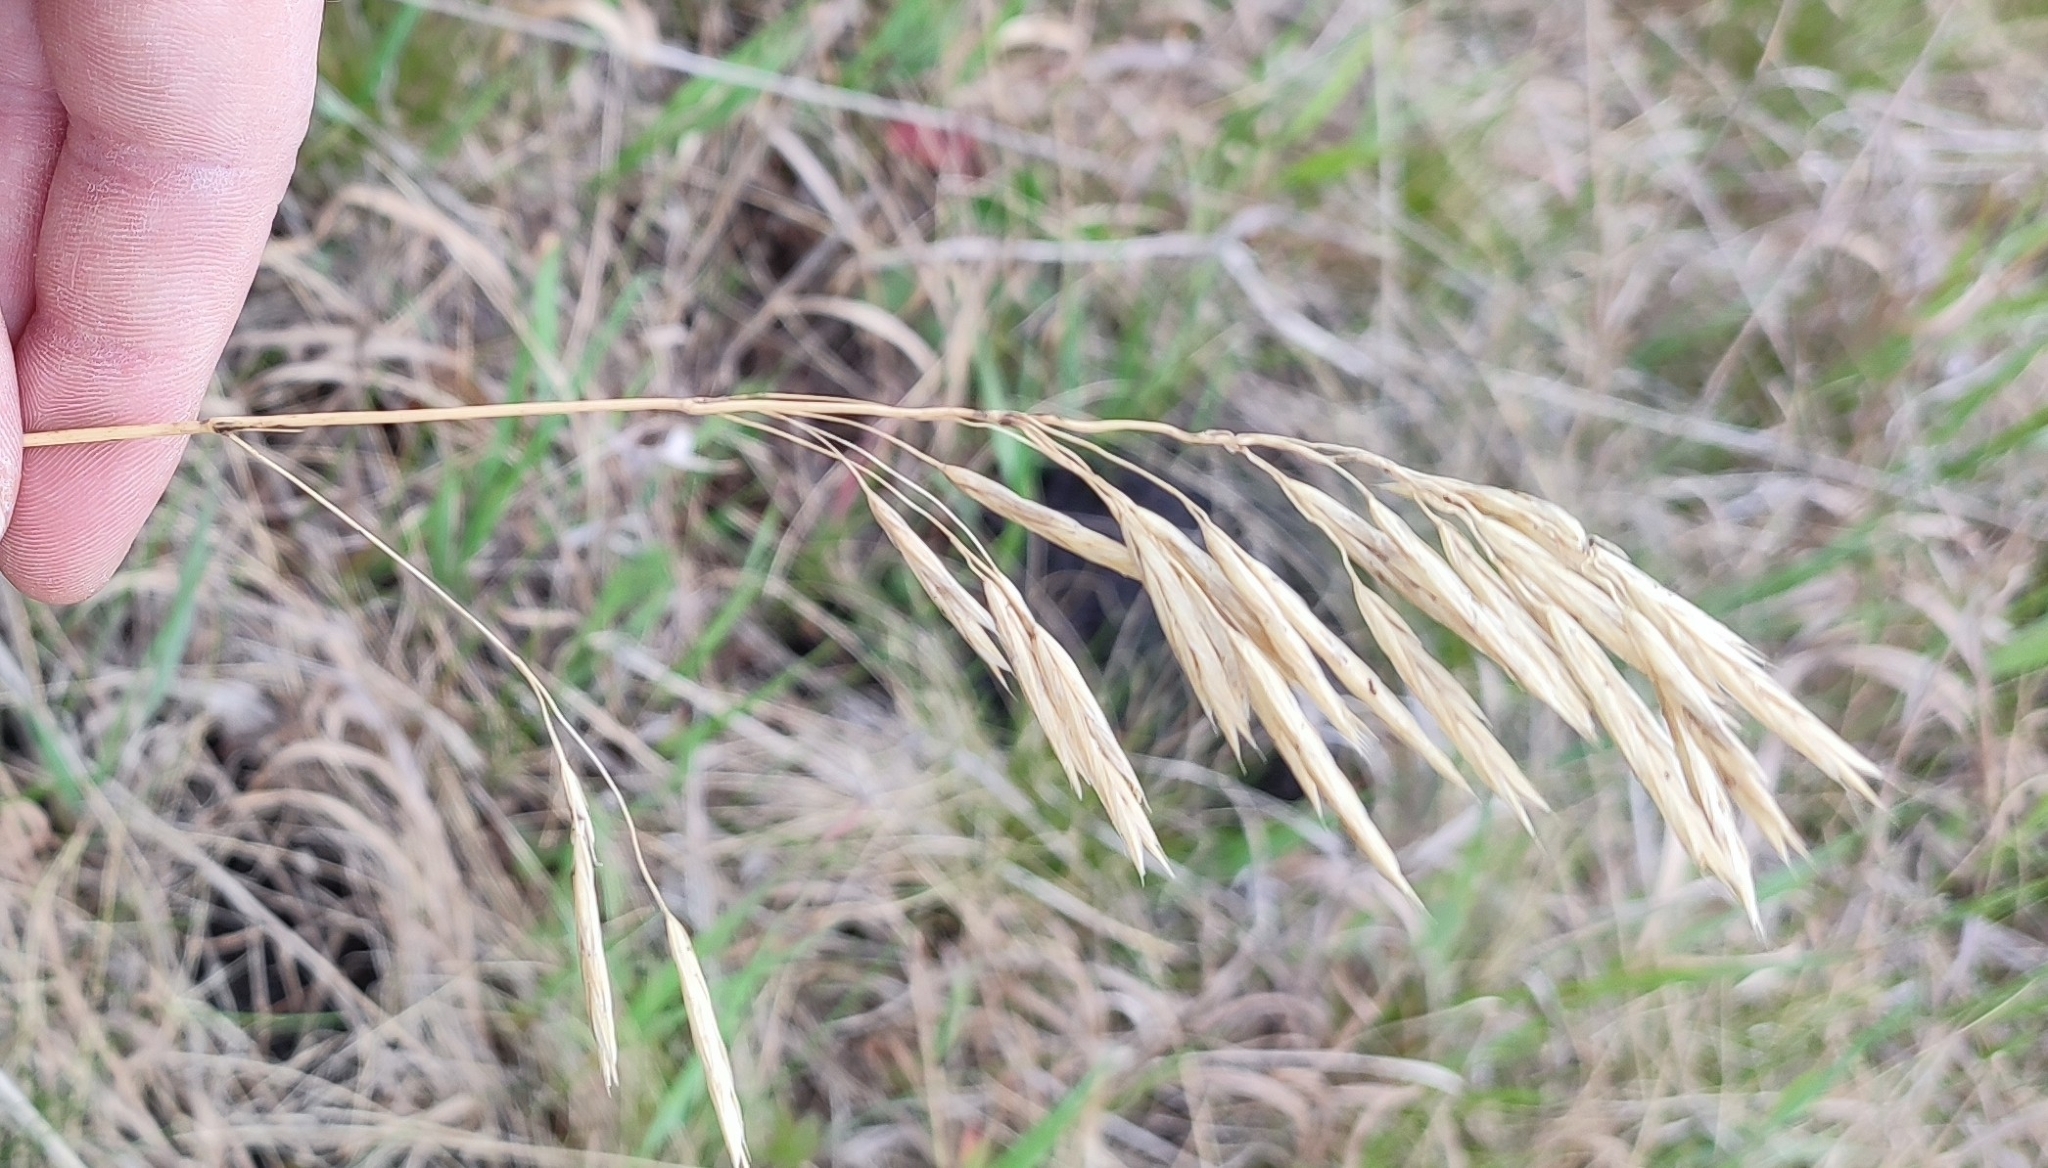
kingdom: Plantae
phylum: Tracheophyta
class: Liliopsida
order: Poales
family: Poaceae
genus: Bromus
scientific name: Bromus inermis
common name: Smooth brome
